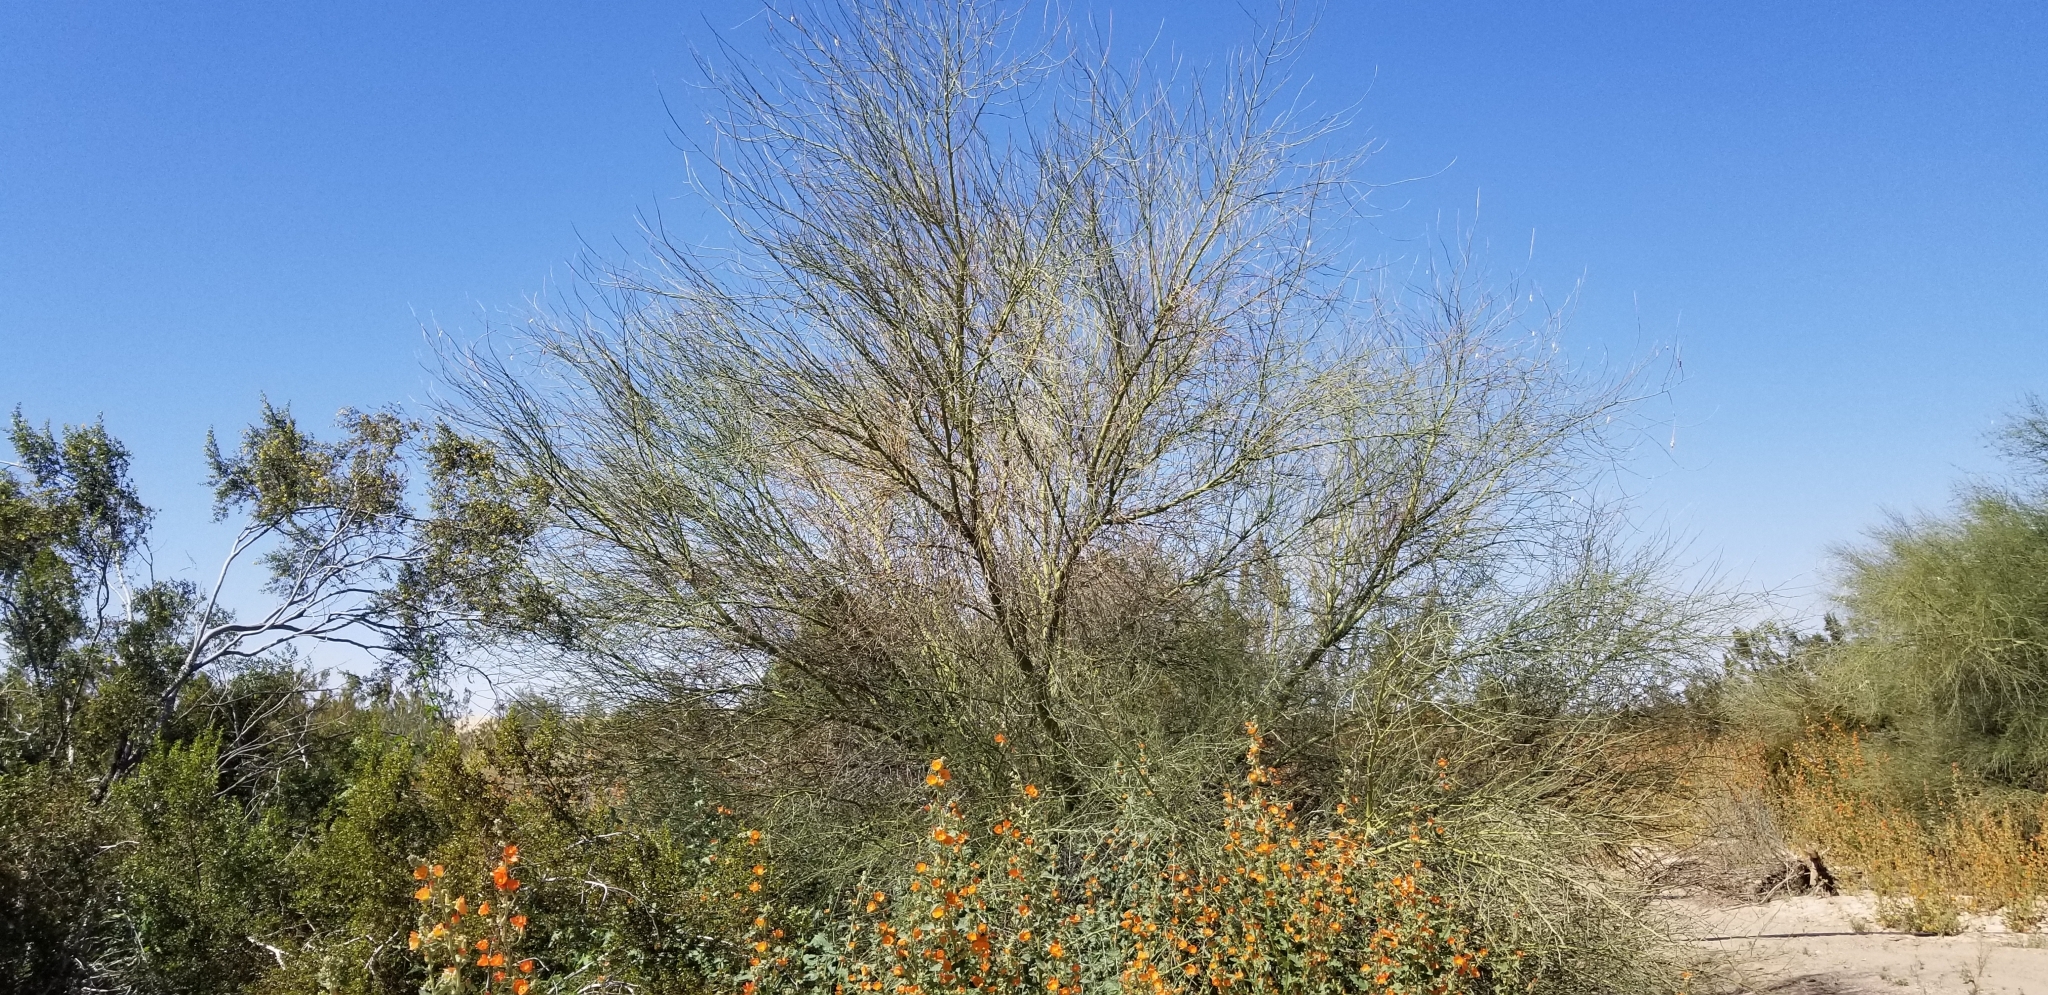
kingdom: Plantae
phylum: Tracheophyta
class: Magnoliopsida
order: Fabales
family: Fabaceae
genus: Parkinsonia
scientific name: Parkinsonia florida
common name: Blue paloverde
